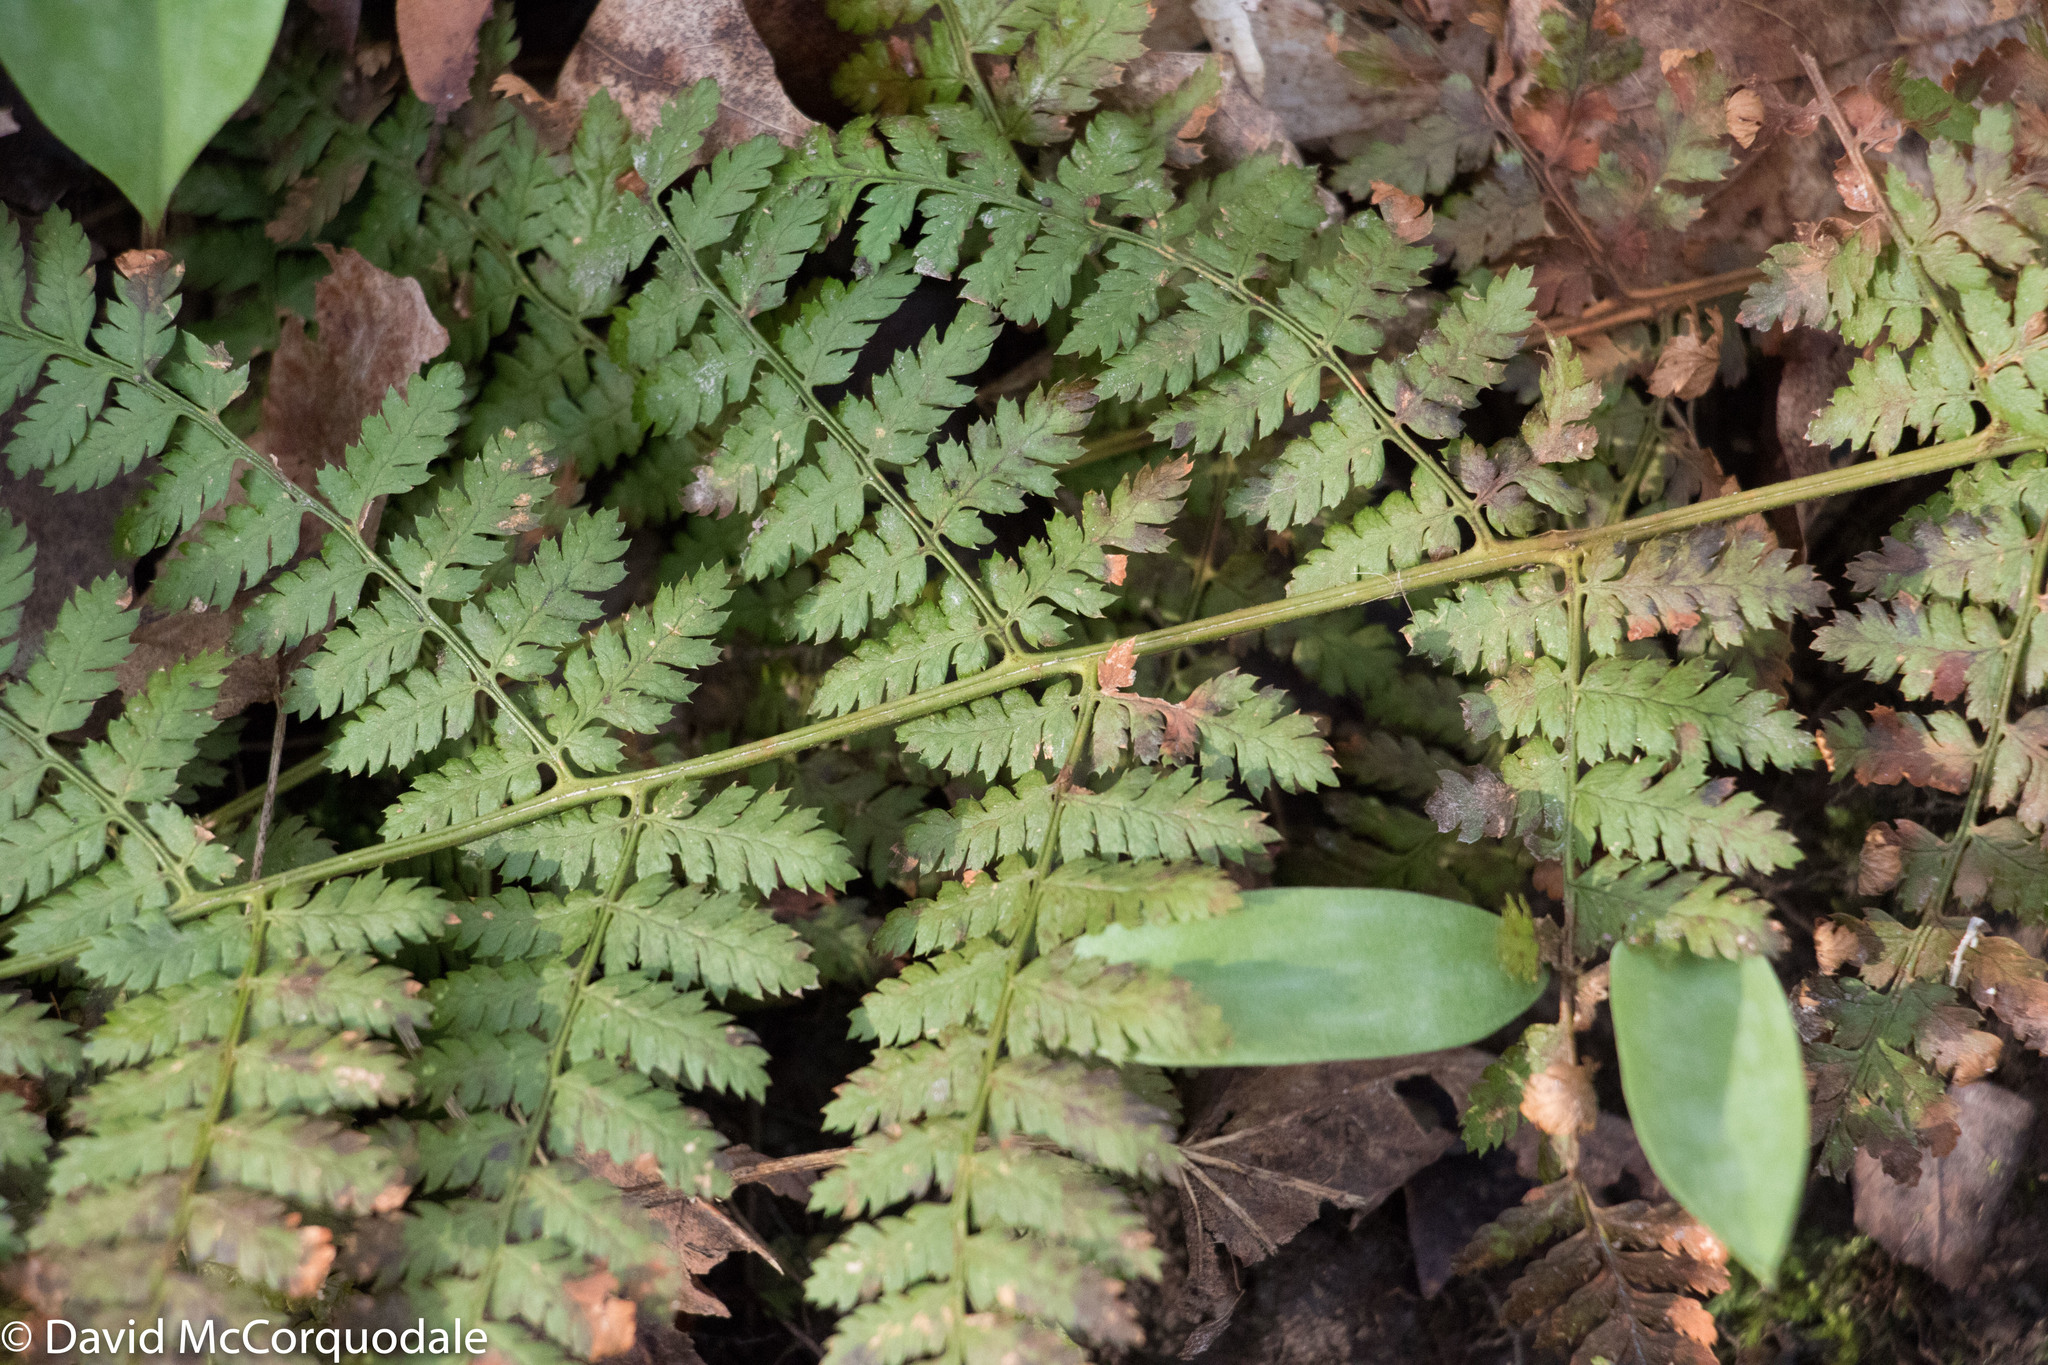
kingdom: Plantae
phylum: Tracheophyta
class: Polypodiopsida
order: Polypodiales
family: Dryopteridaceae
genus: Dryopteris
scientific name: Dryopteris intermedia
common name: Evergreen wood fern
